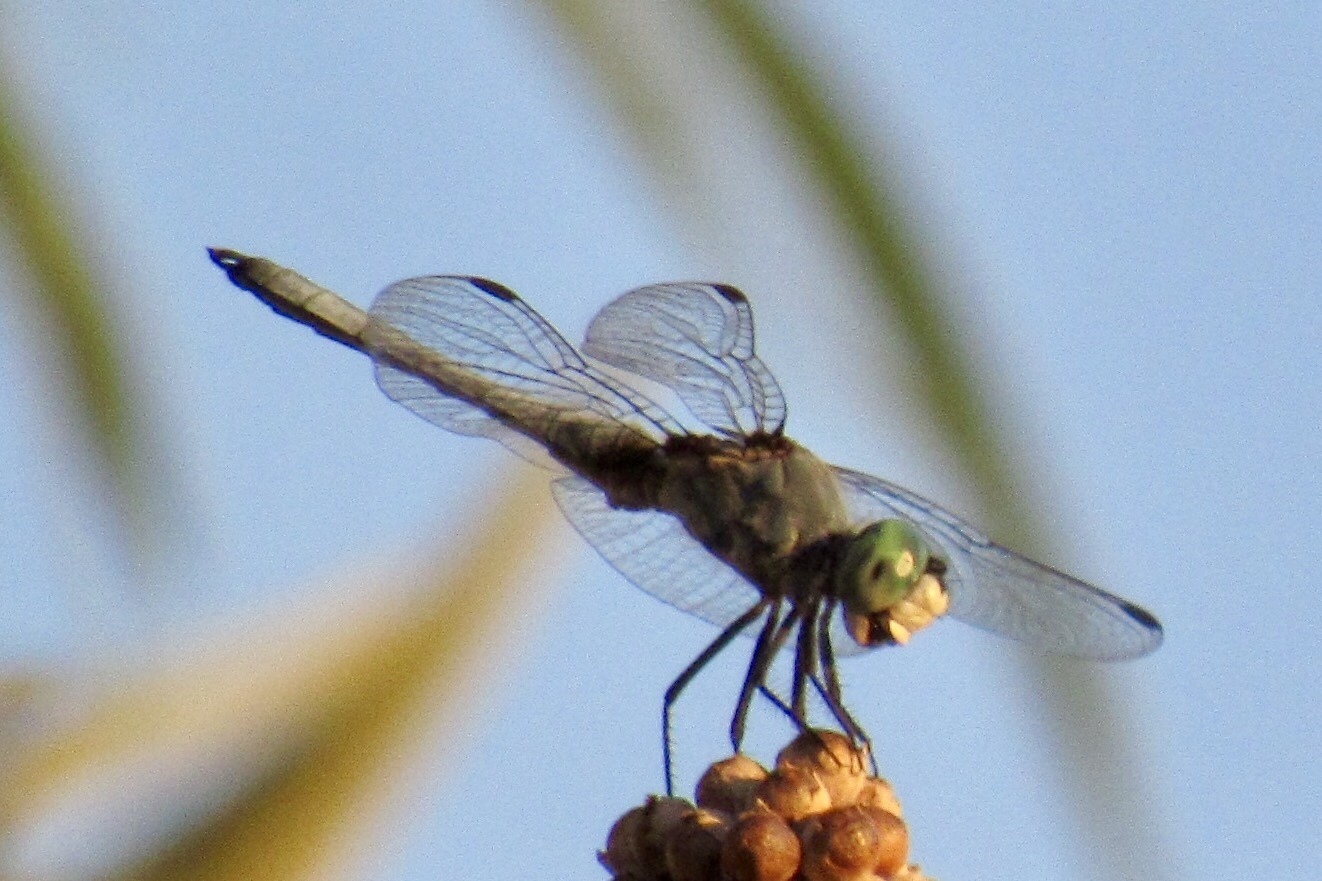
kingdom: Animalia
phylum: Arthropoda
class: Insecta
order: Odonata
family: Libellulidae
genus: Pachydiplax
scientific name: Pachydiplax longipennis
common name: Blue dasher
